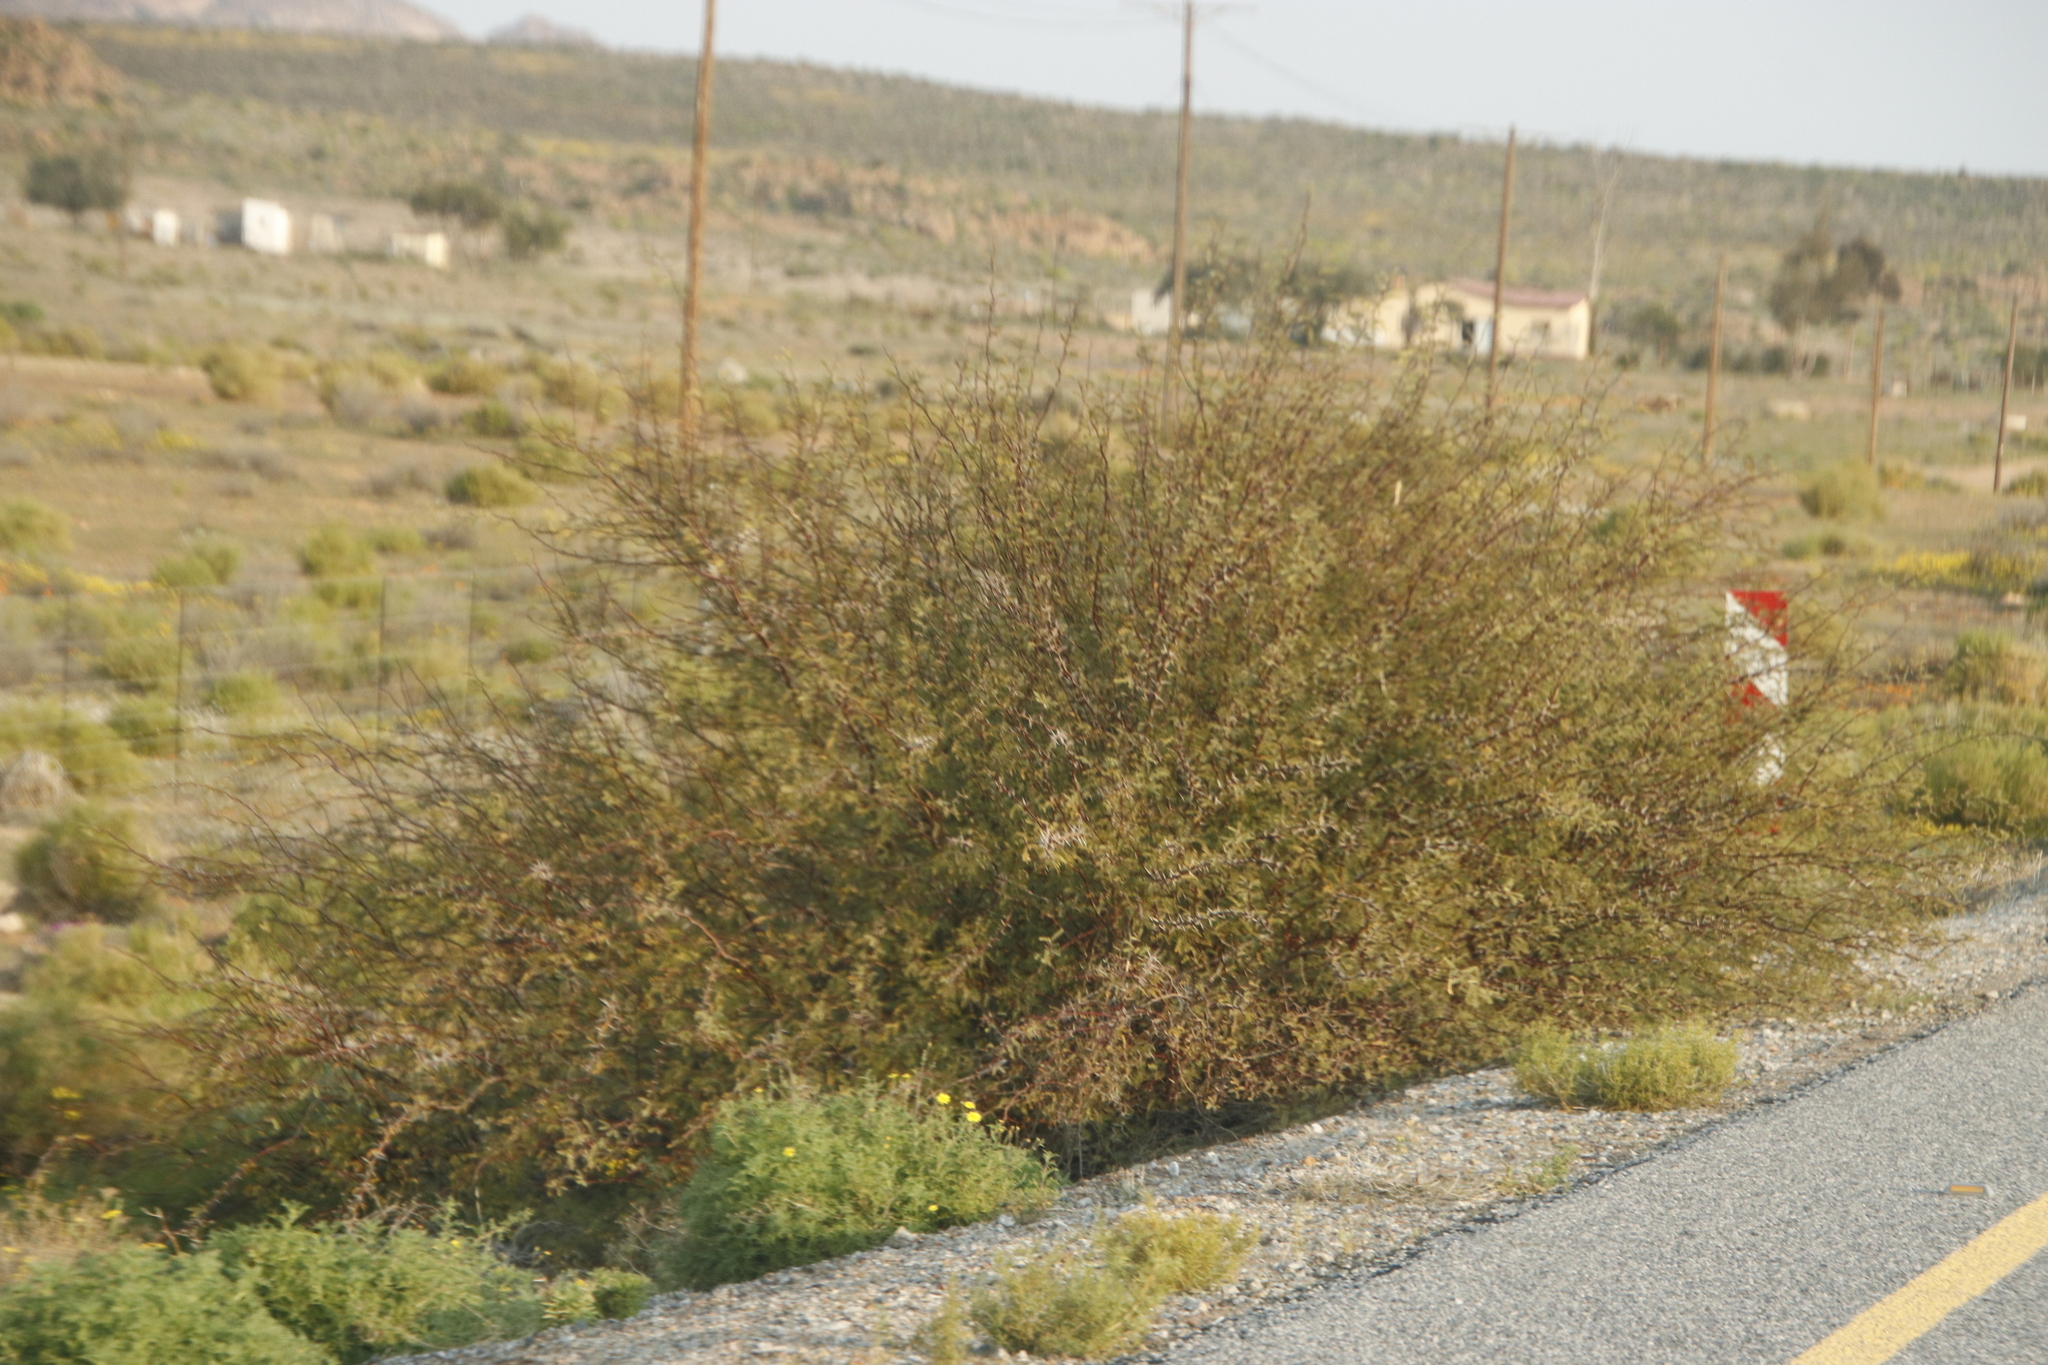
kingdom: Plantae
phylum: Tracheophyta
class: Magnoliopsida
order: Fabales
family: Fabaceae
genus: Vachellia
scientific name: Vachellia karroo
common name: Sweet thorn
